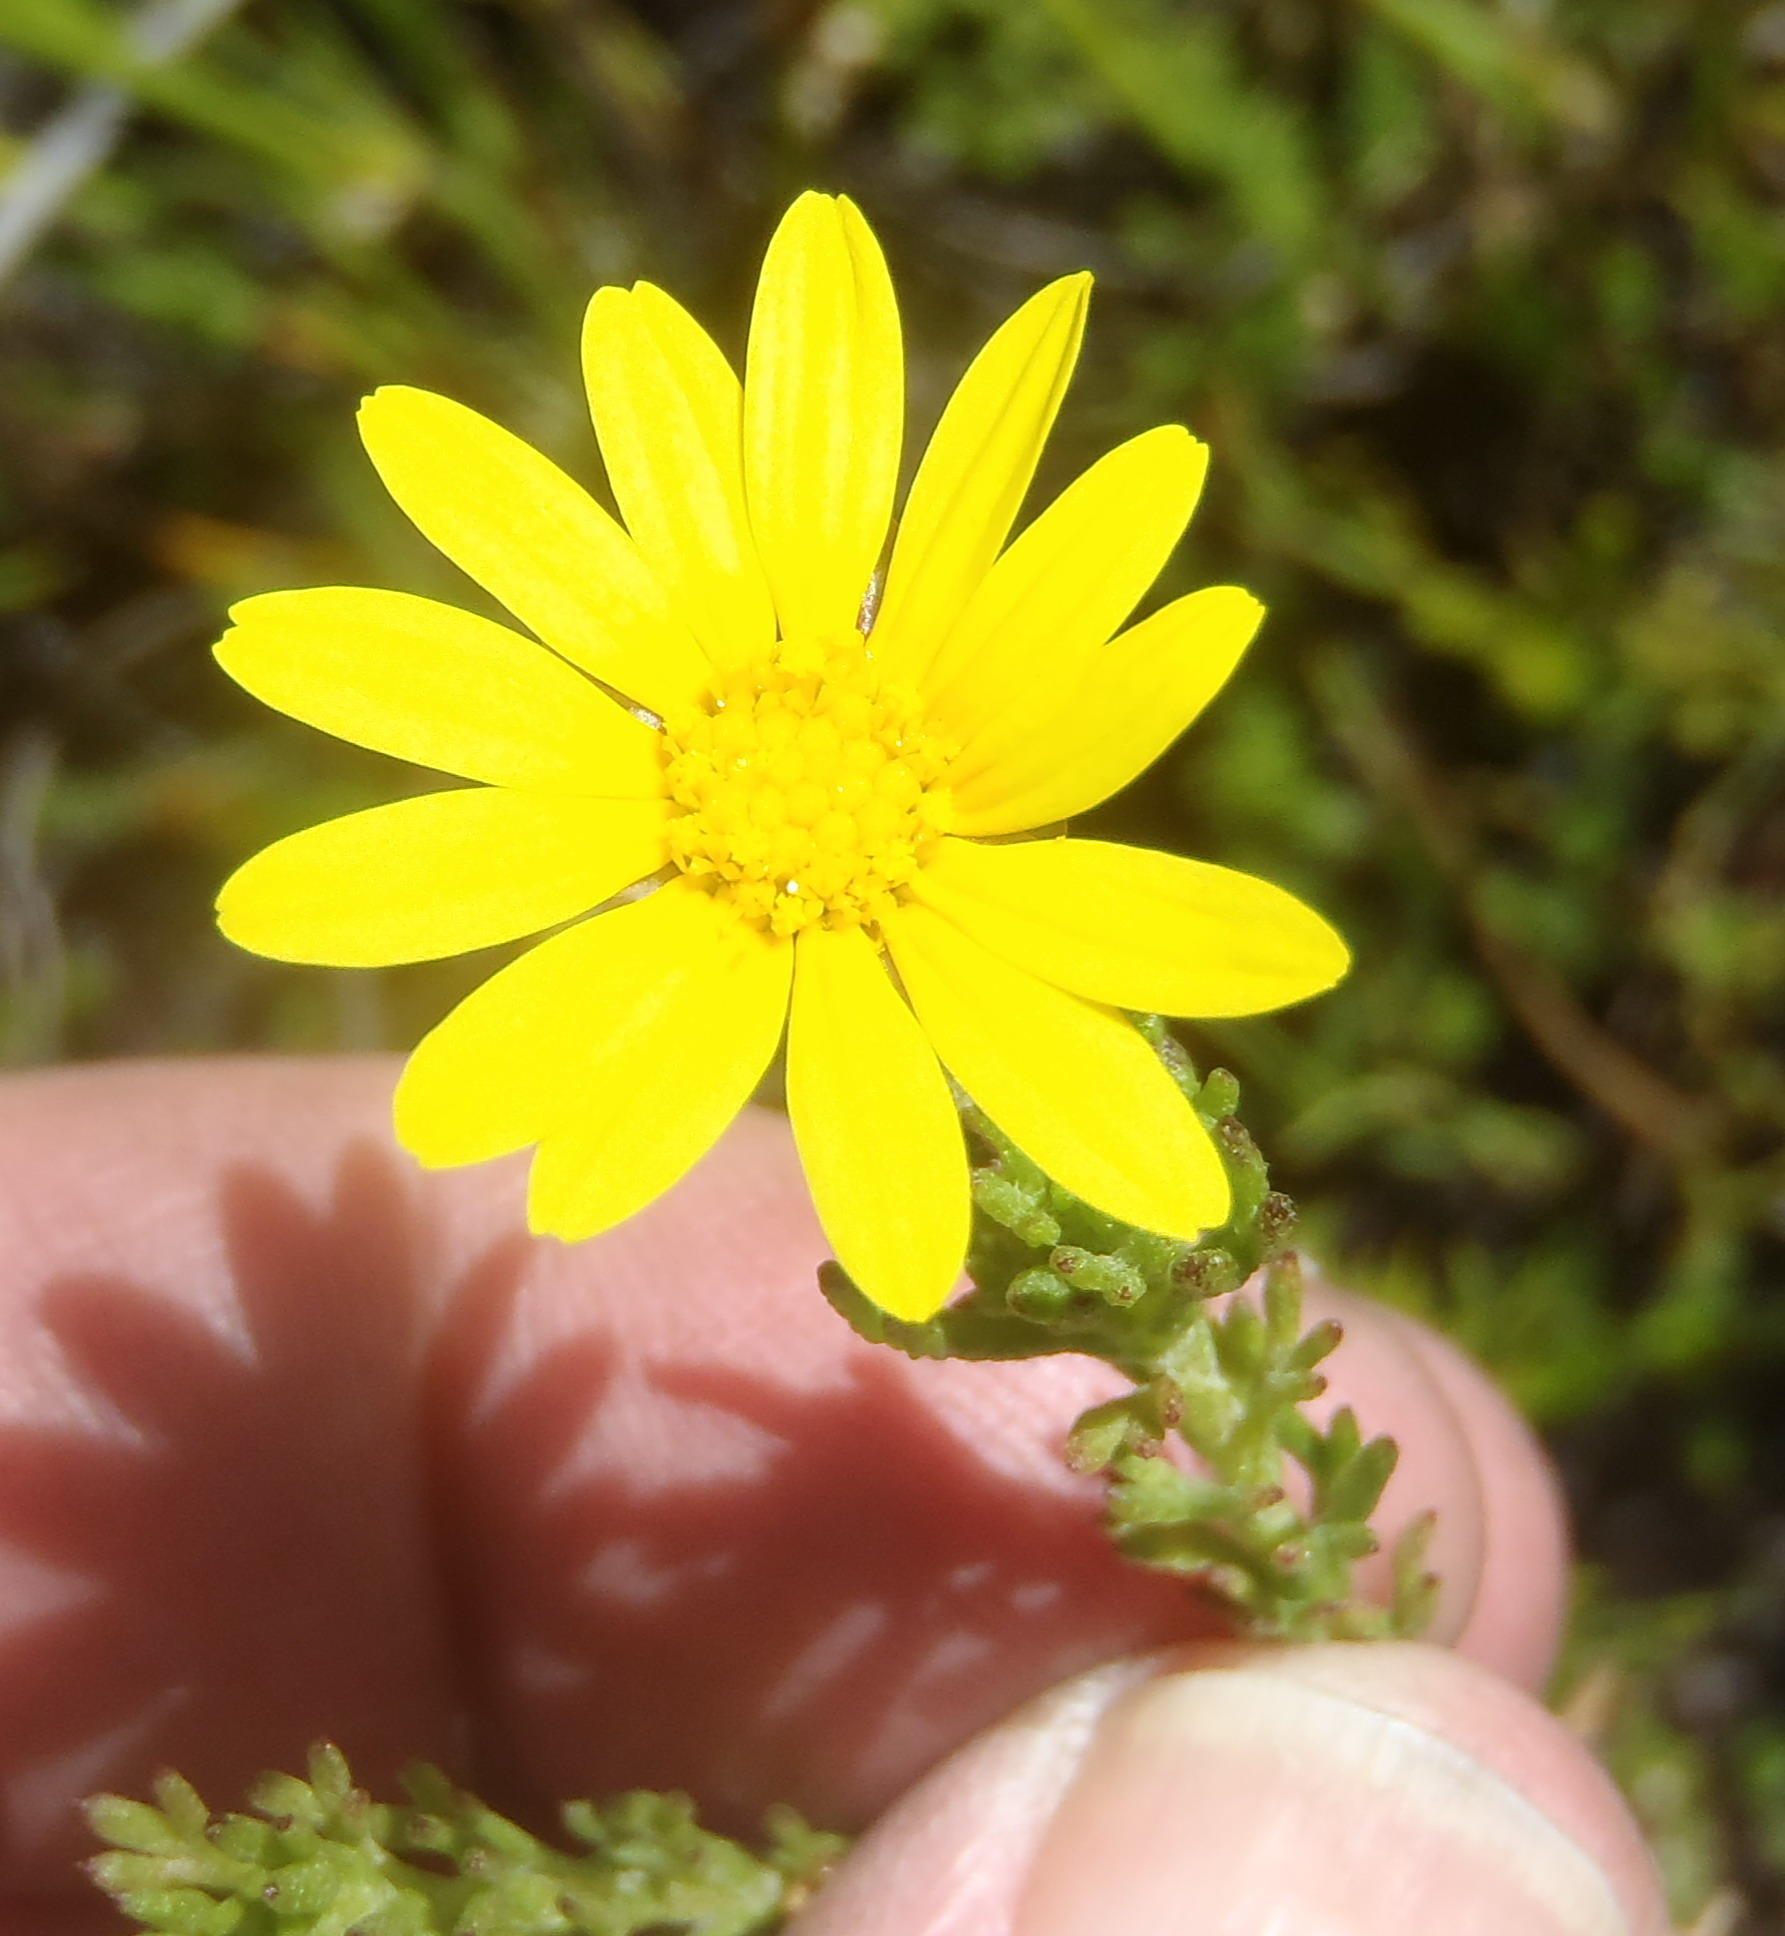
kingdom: Plantae
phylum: Tracheophyta
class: Magnoliopsida
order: Asterales
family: Asteraceae
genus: Ursinia
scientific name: Ursinia trifida
